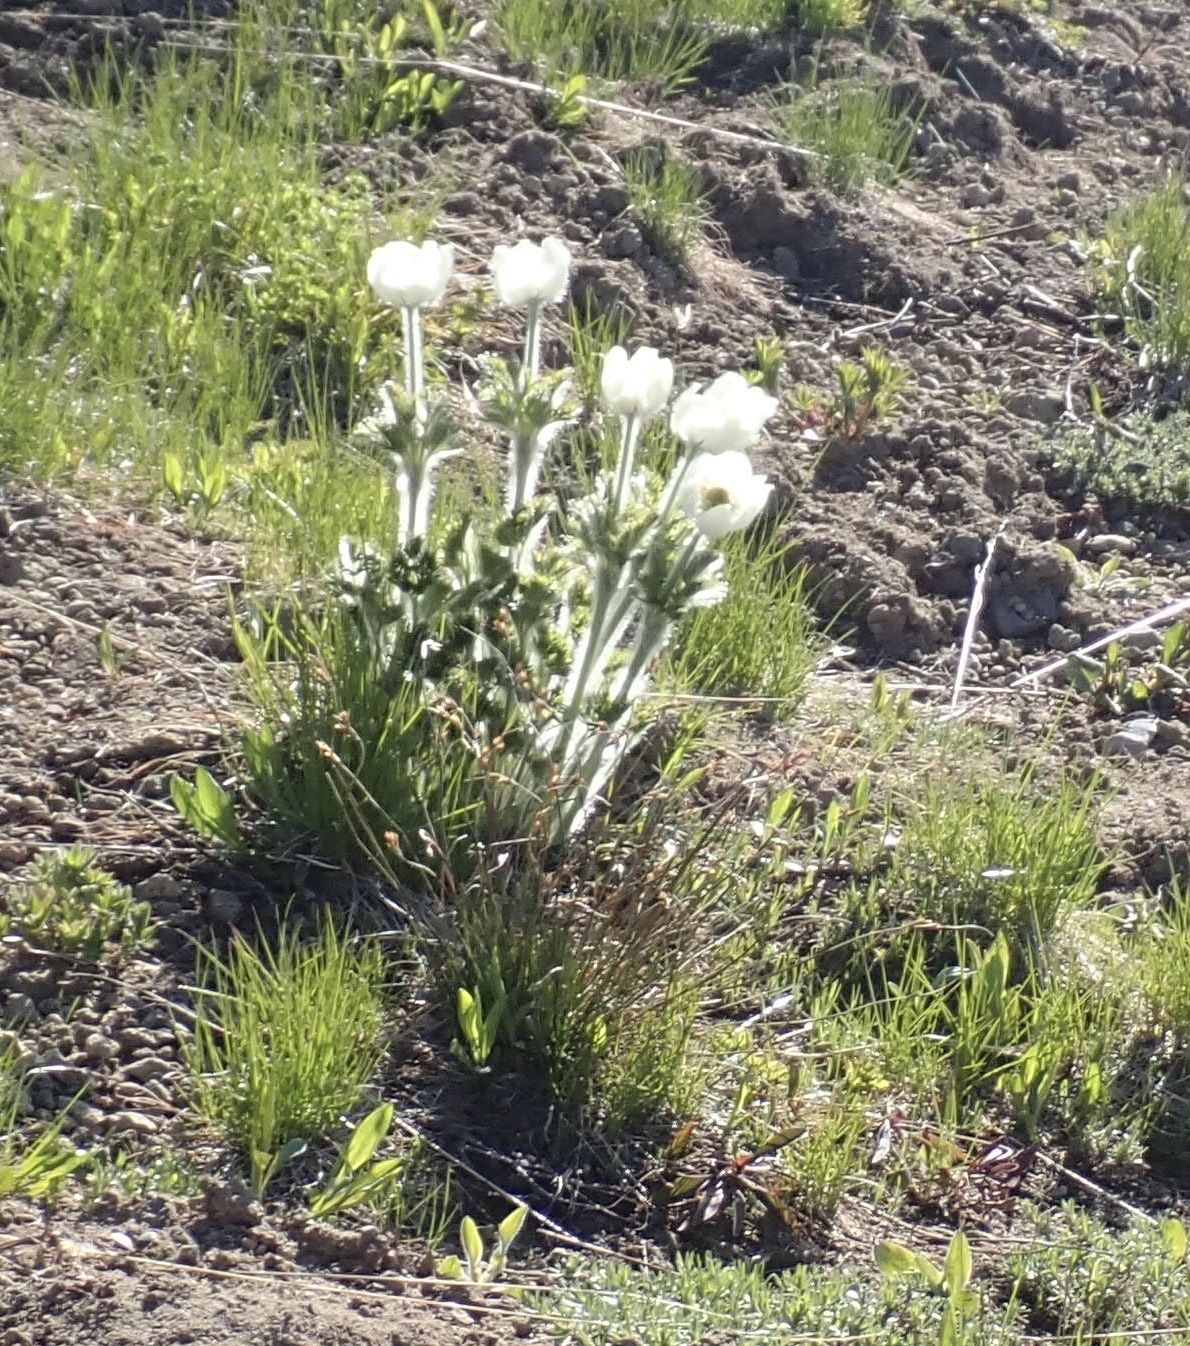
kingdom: Plantae
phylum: Tracheophyta
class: Magnoliopsida
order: Ranunculales
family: Ranunculaceae
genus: Pulsatilla
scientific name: Pulsatilla occidentalis
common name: Mountain pasqueflower
